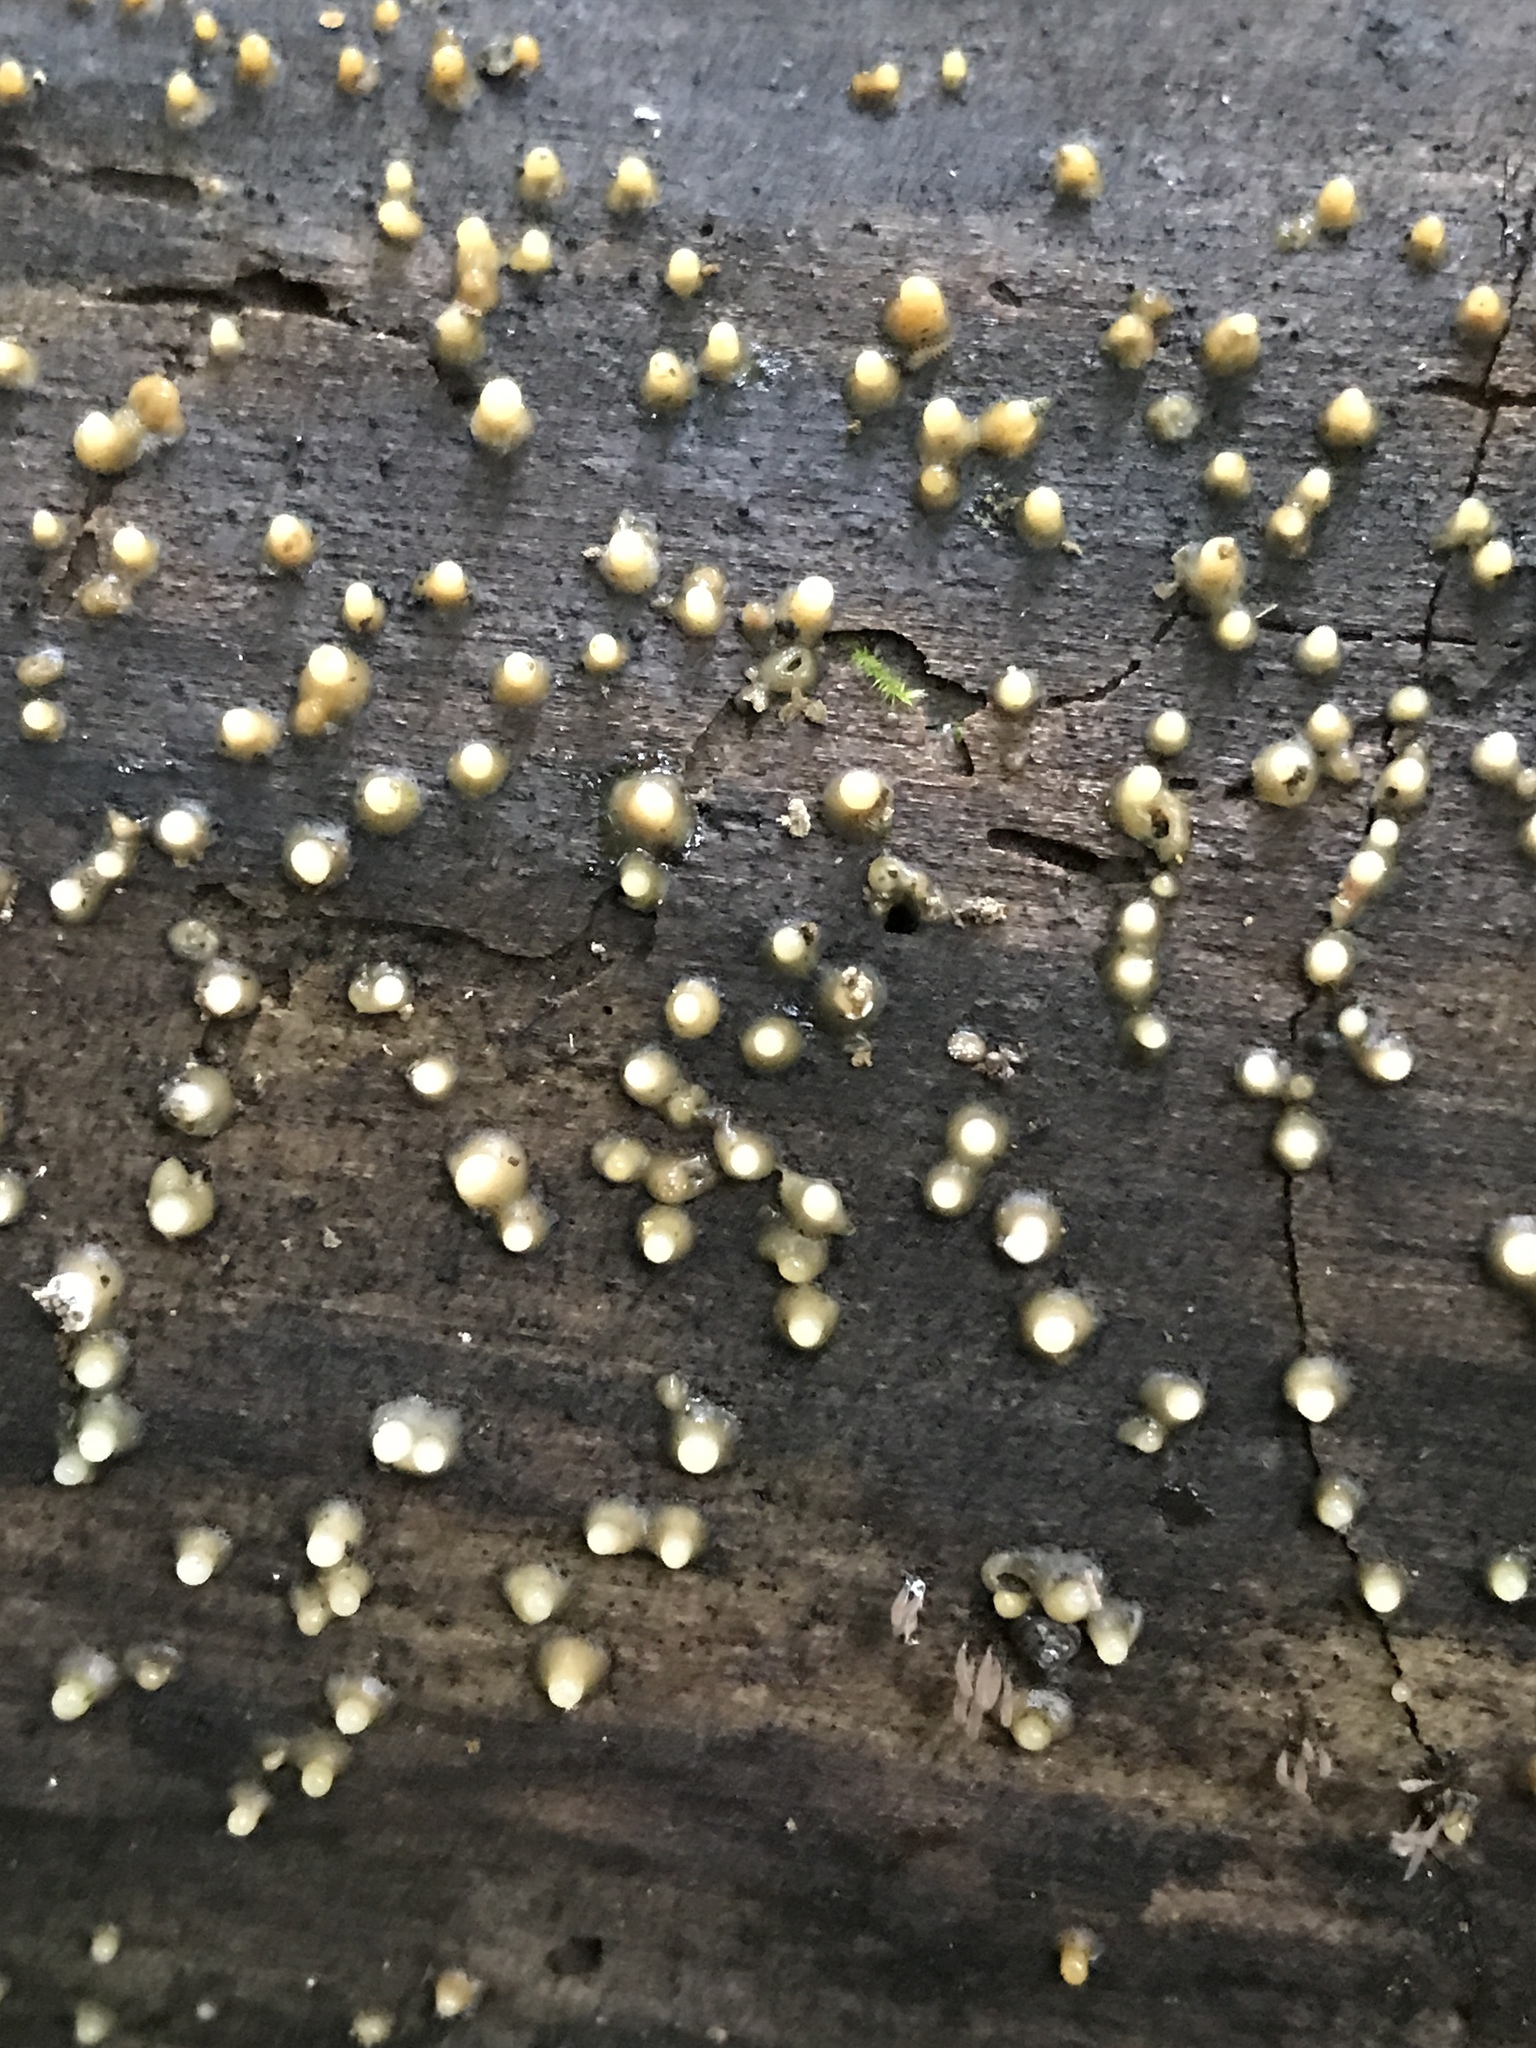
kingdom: Fungi
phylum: Basidiomycota
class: Atractiellomycetes
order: Atractiellales
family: Phleogenaceae
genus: Helicogloea
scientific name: Helicogloea compressa
